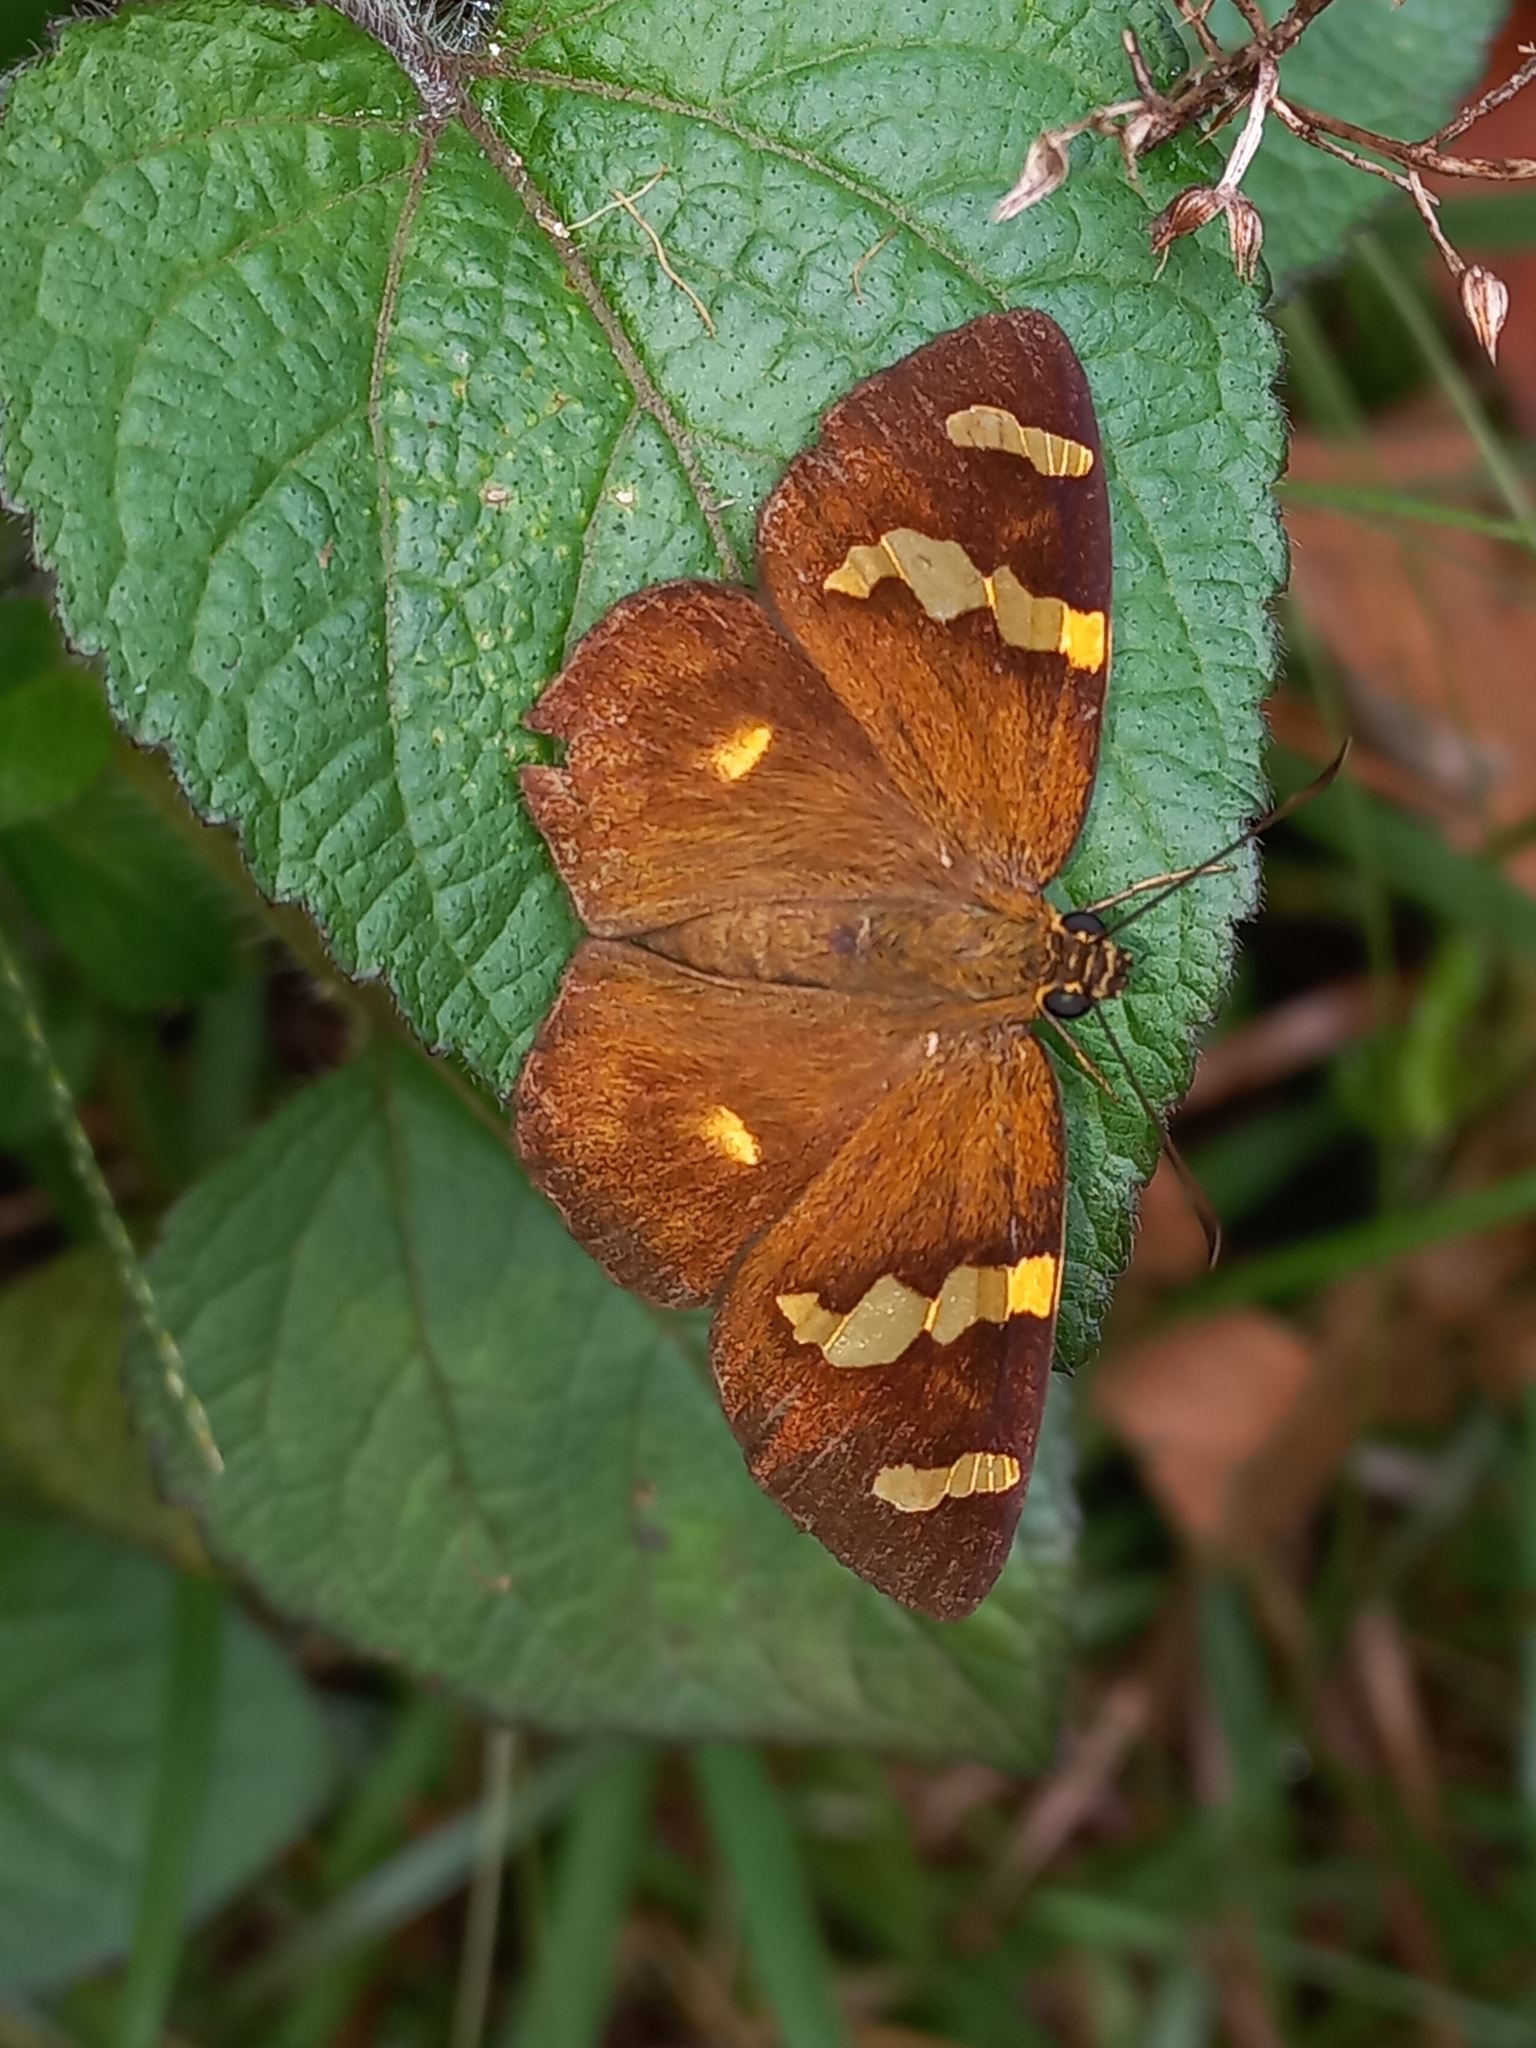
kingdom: Animalia
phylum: Arthropoda
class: Insecta
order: Lepidoptera
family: Hesperiidae
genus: Celaenorrhinus
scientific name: Celaenorrhinus mokeezi
